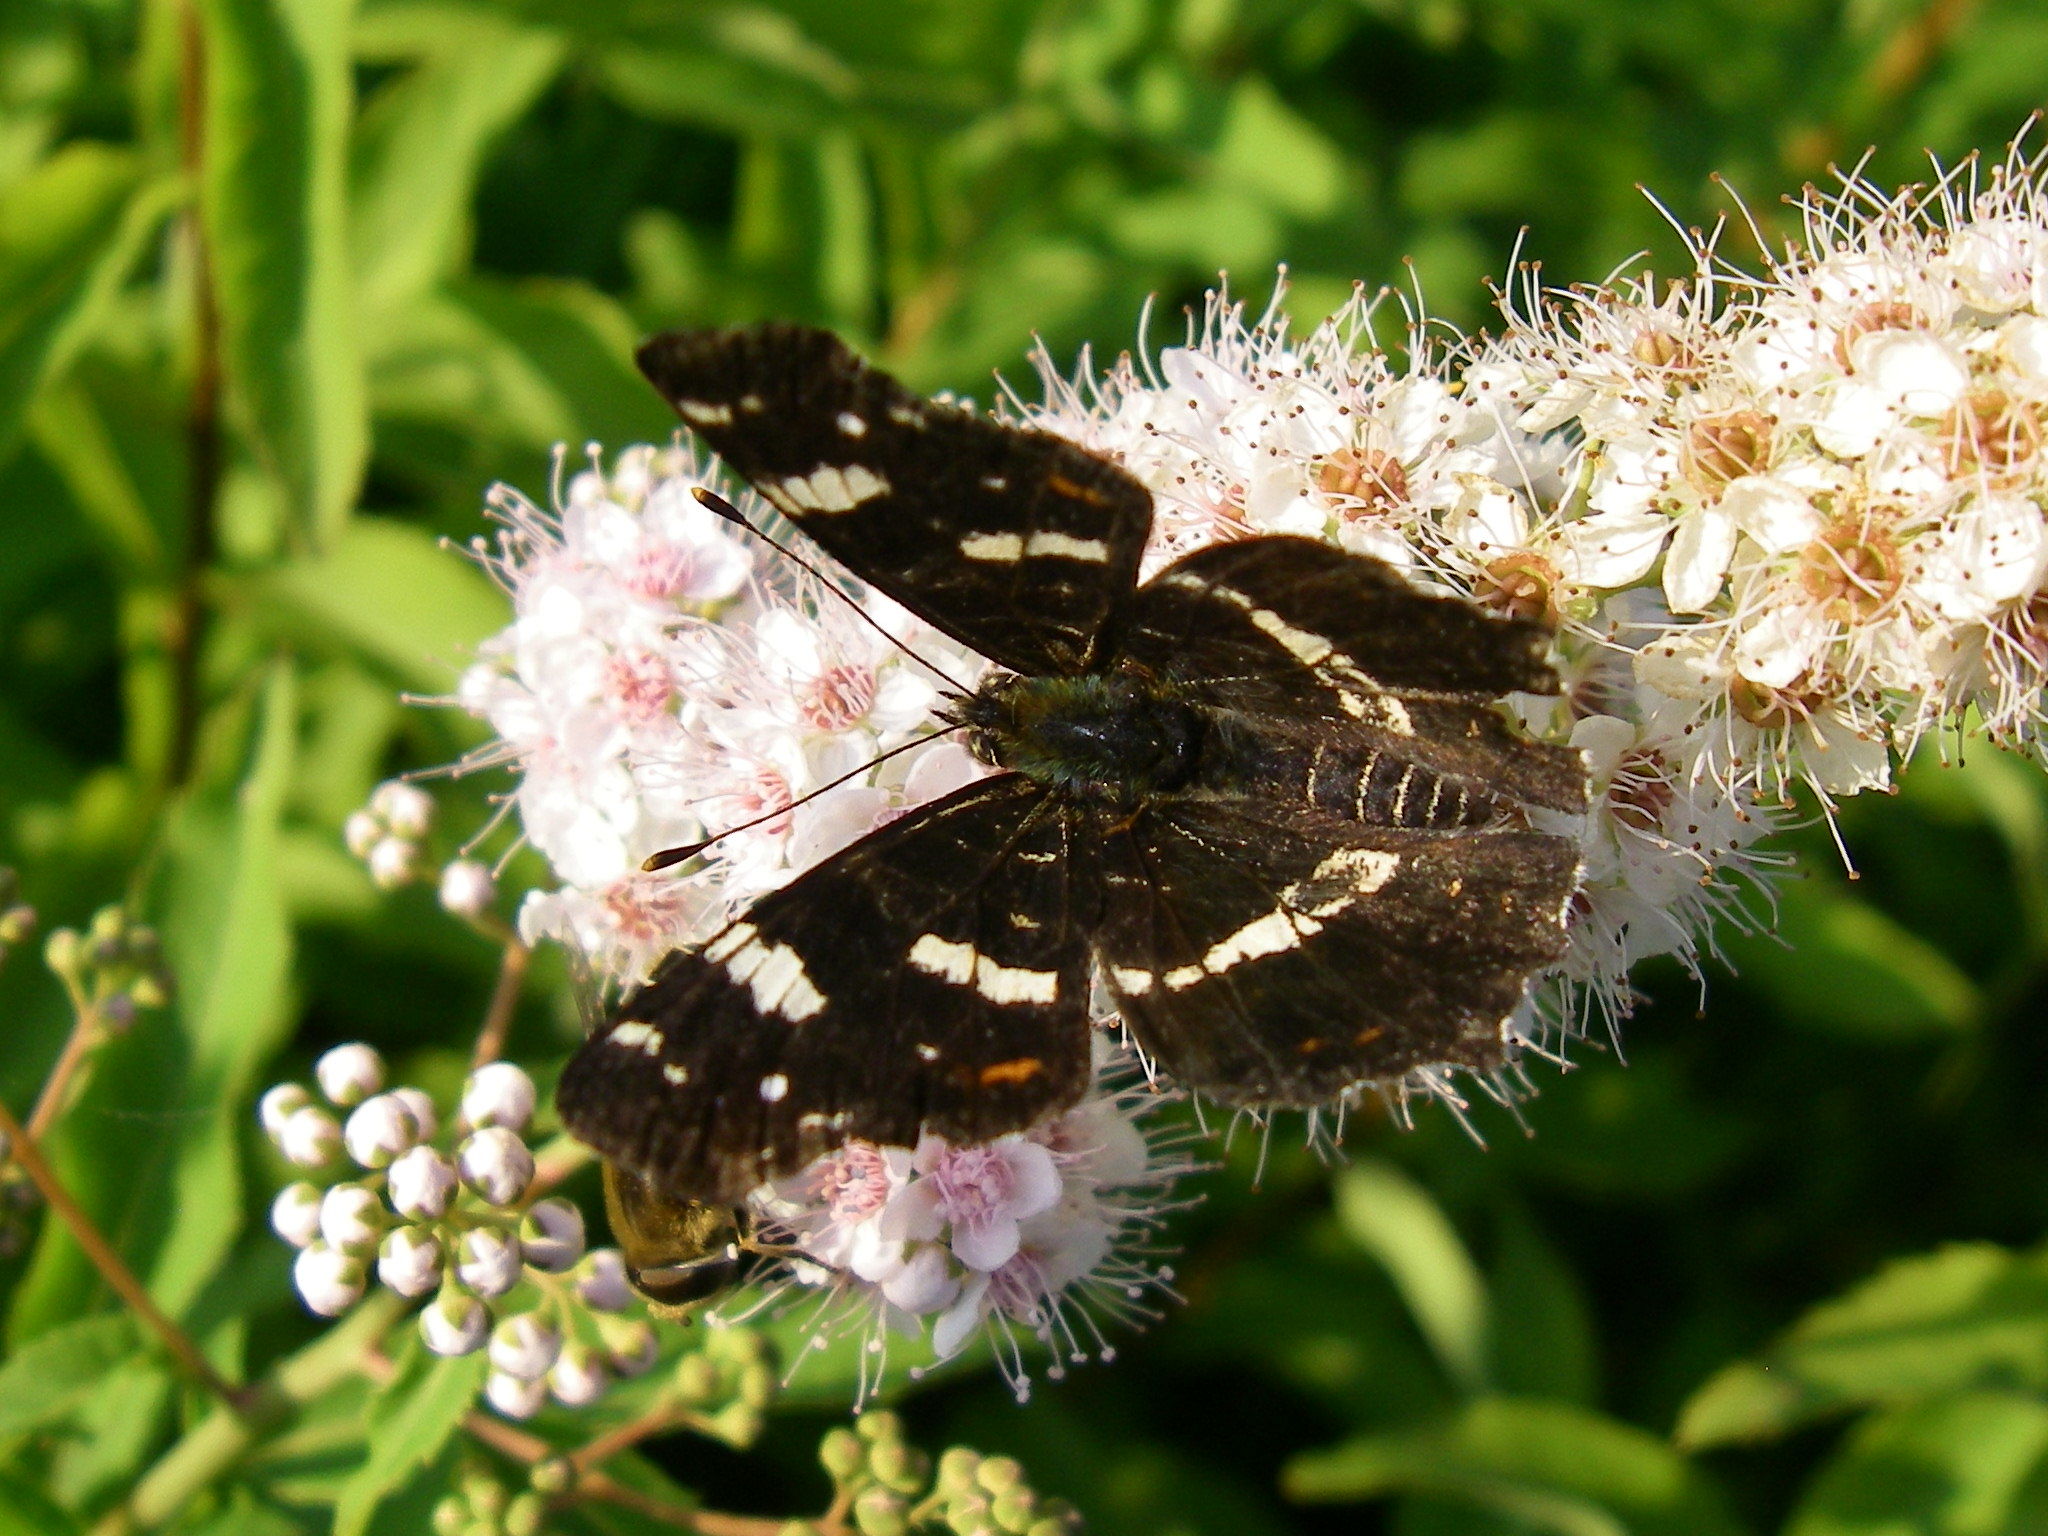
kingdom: Animalia
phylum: Arthropoda
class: Insecta
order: Lepidoptera
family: Nymphalidae
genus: Araschnia
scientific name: Araschnia levana
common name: Map butterfly
